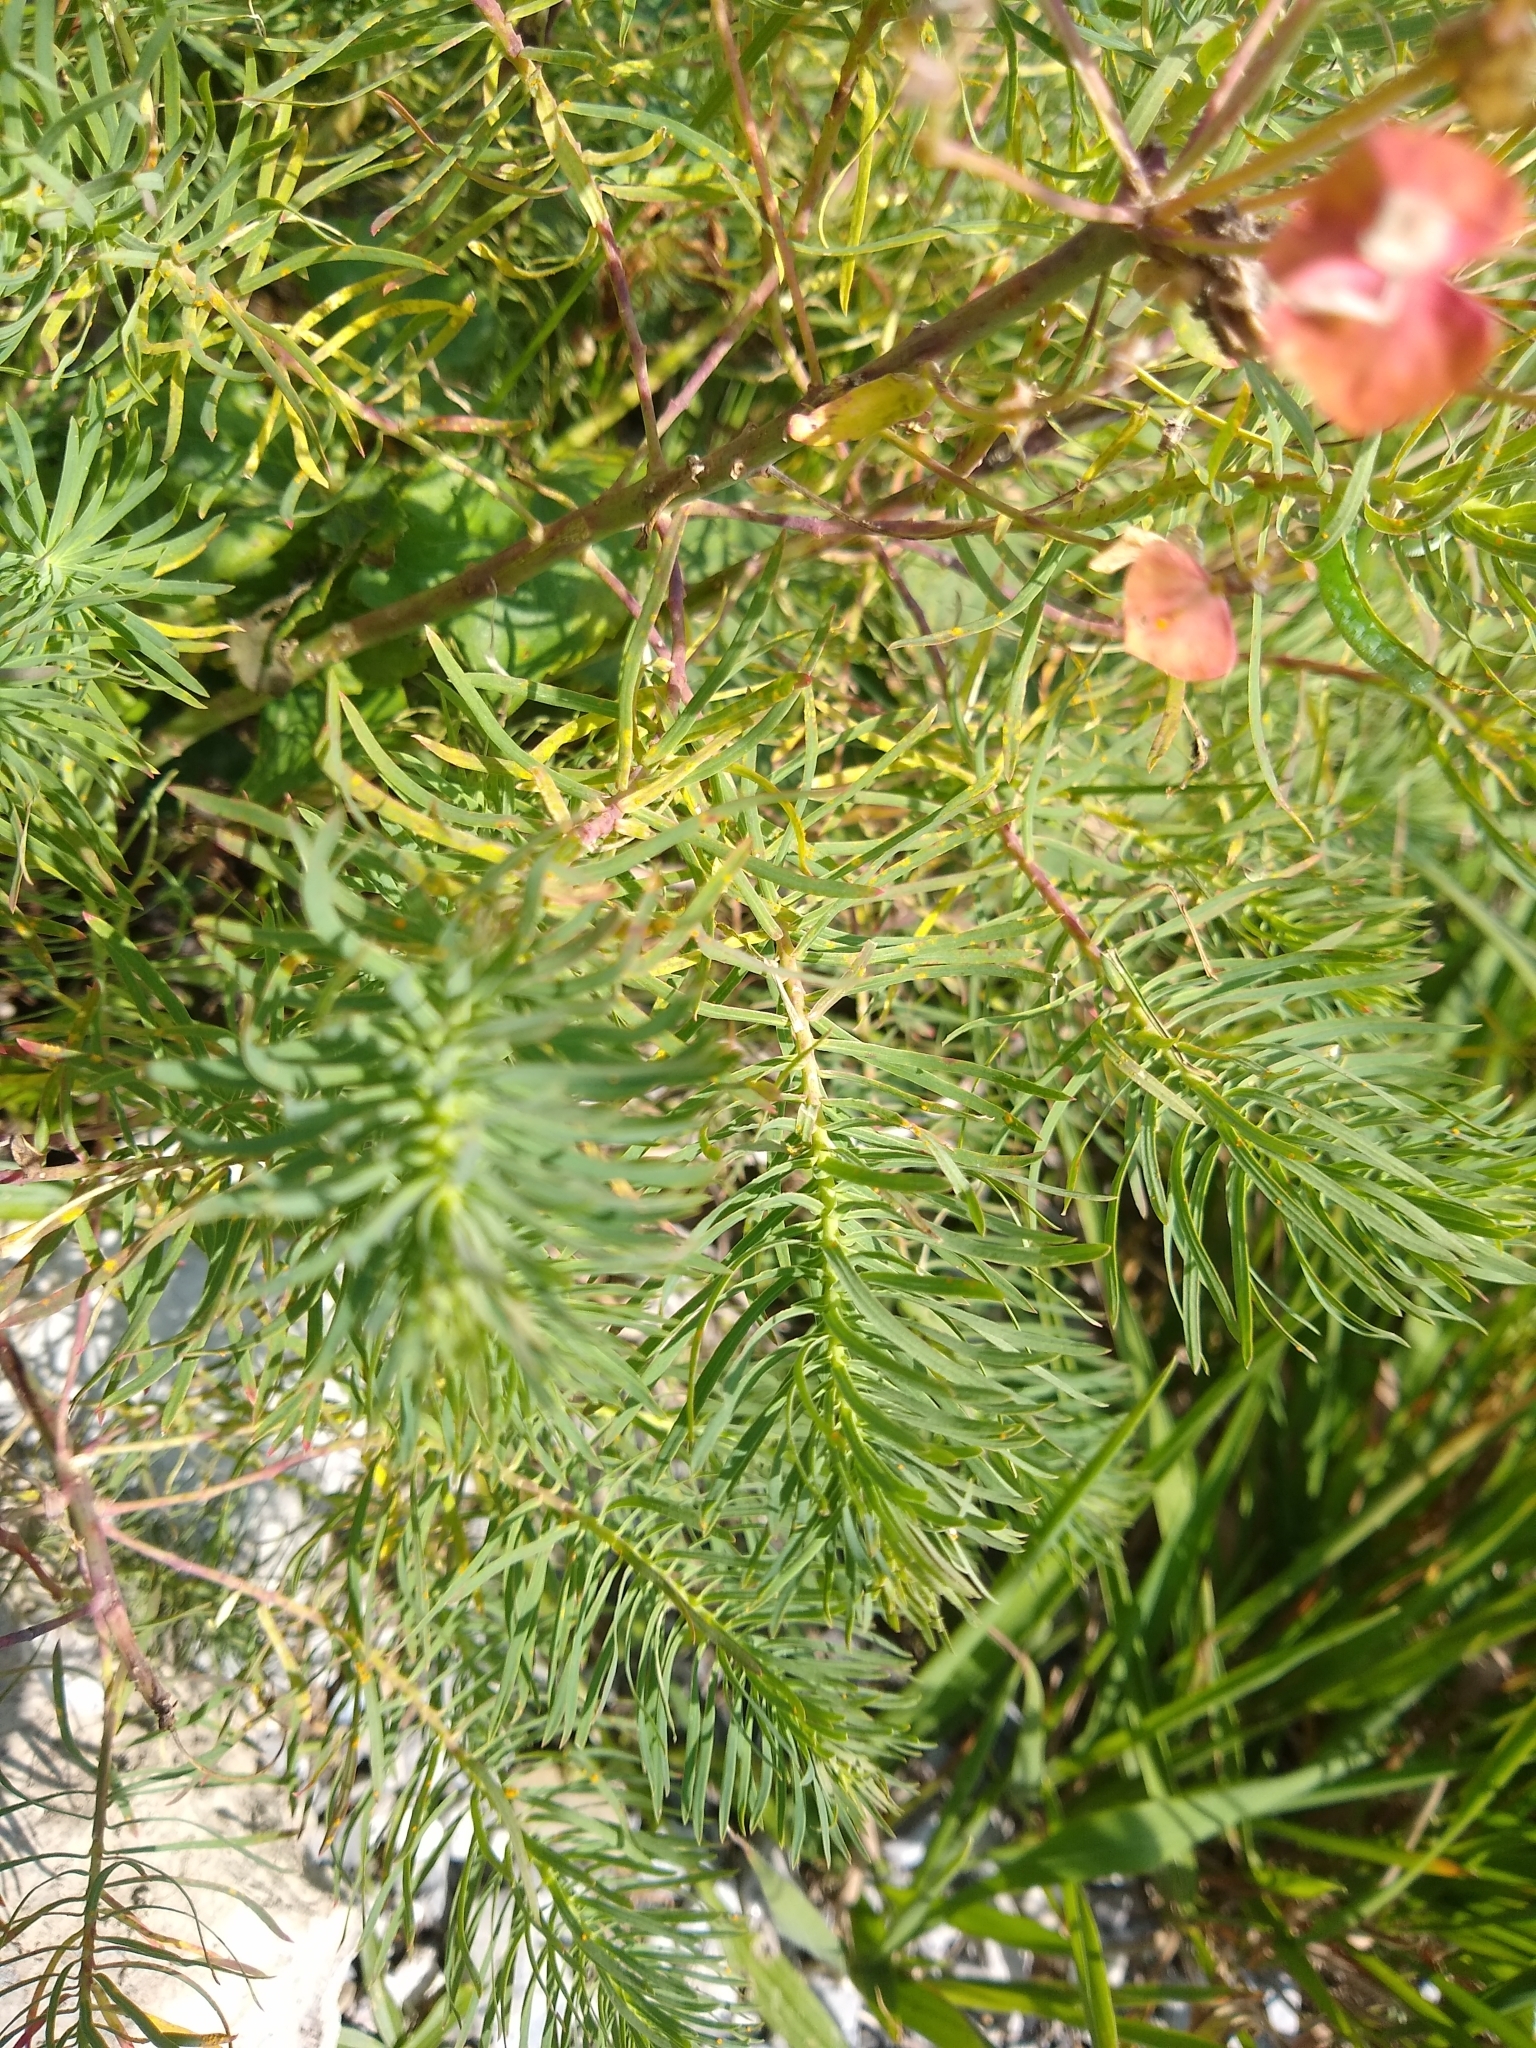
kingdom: Plantae
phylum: Tracheophyta
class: Magnoliopsida
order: Malpighiales
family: Euphorbiaceae
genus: Euphorbia
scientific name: Euphorbia cyparissias
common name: Cypress spurge
